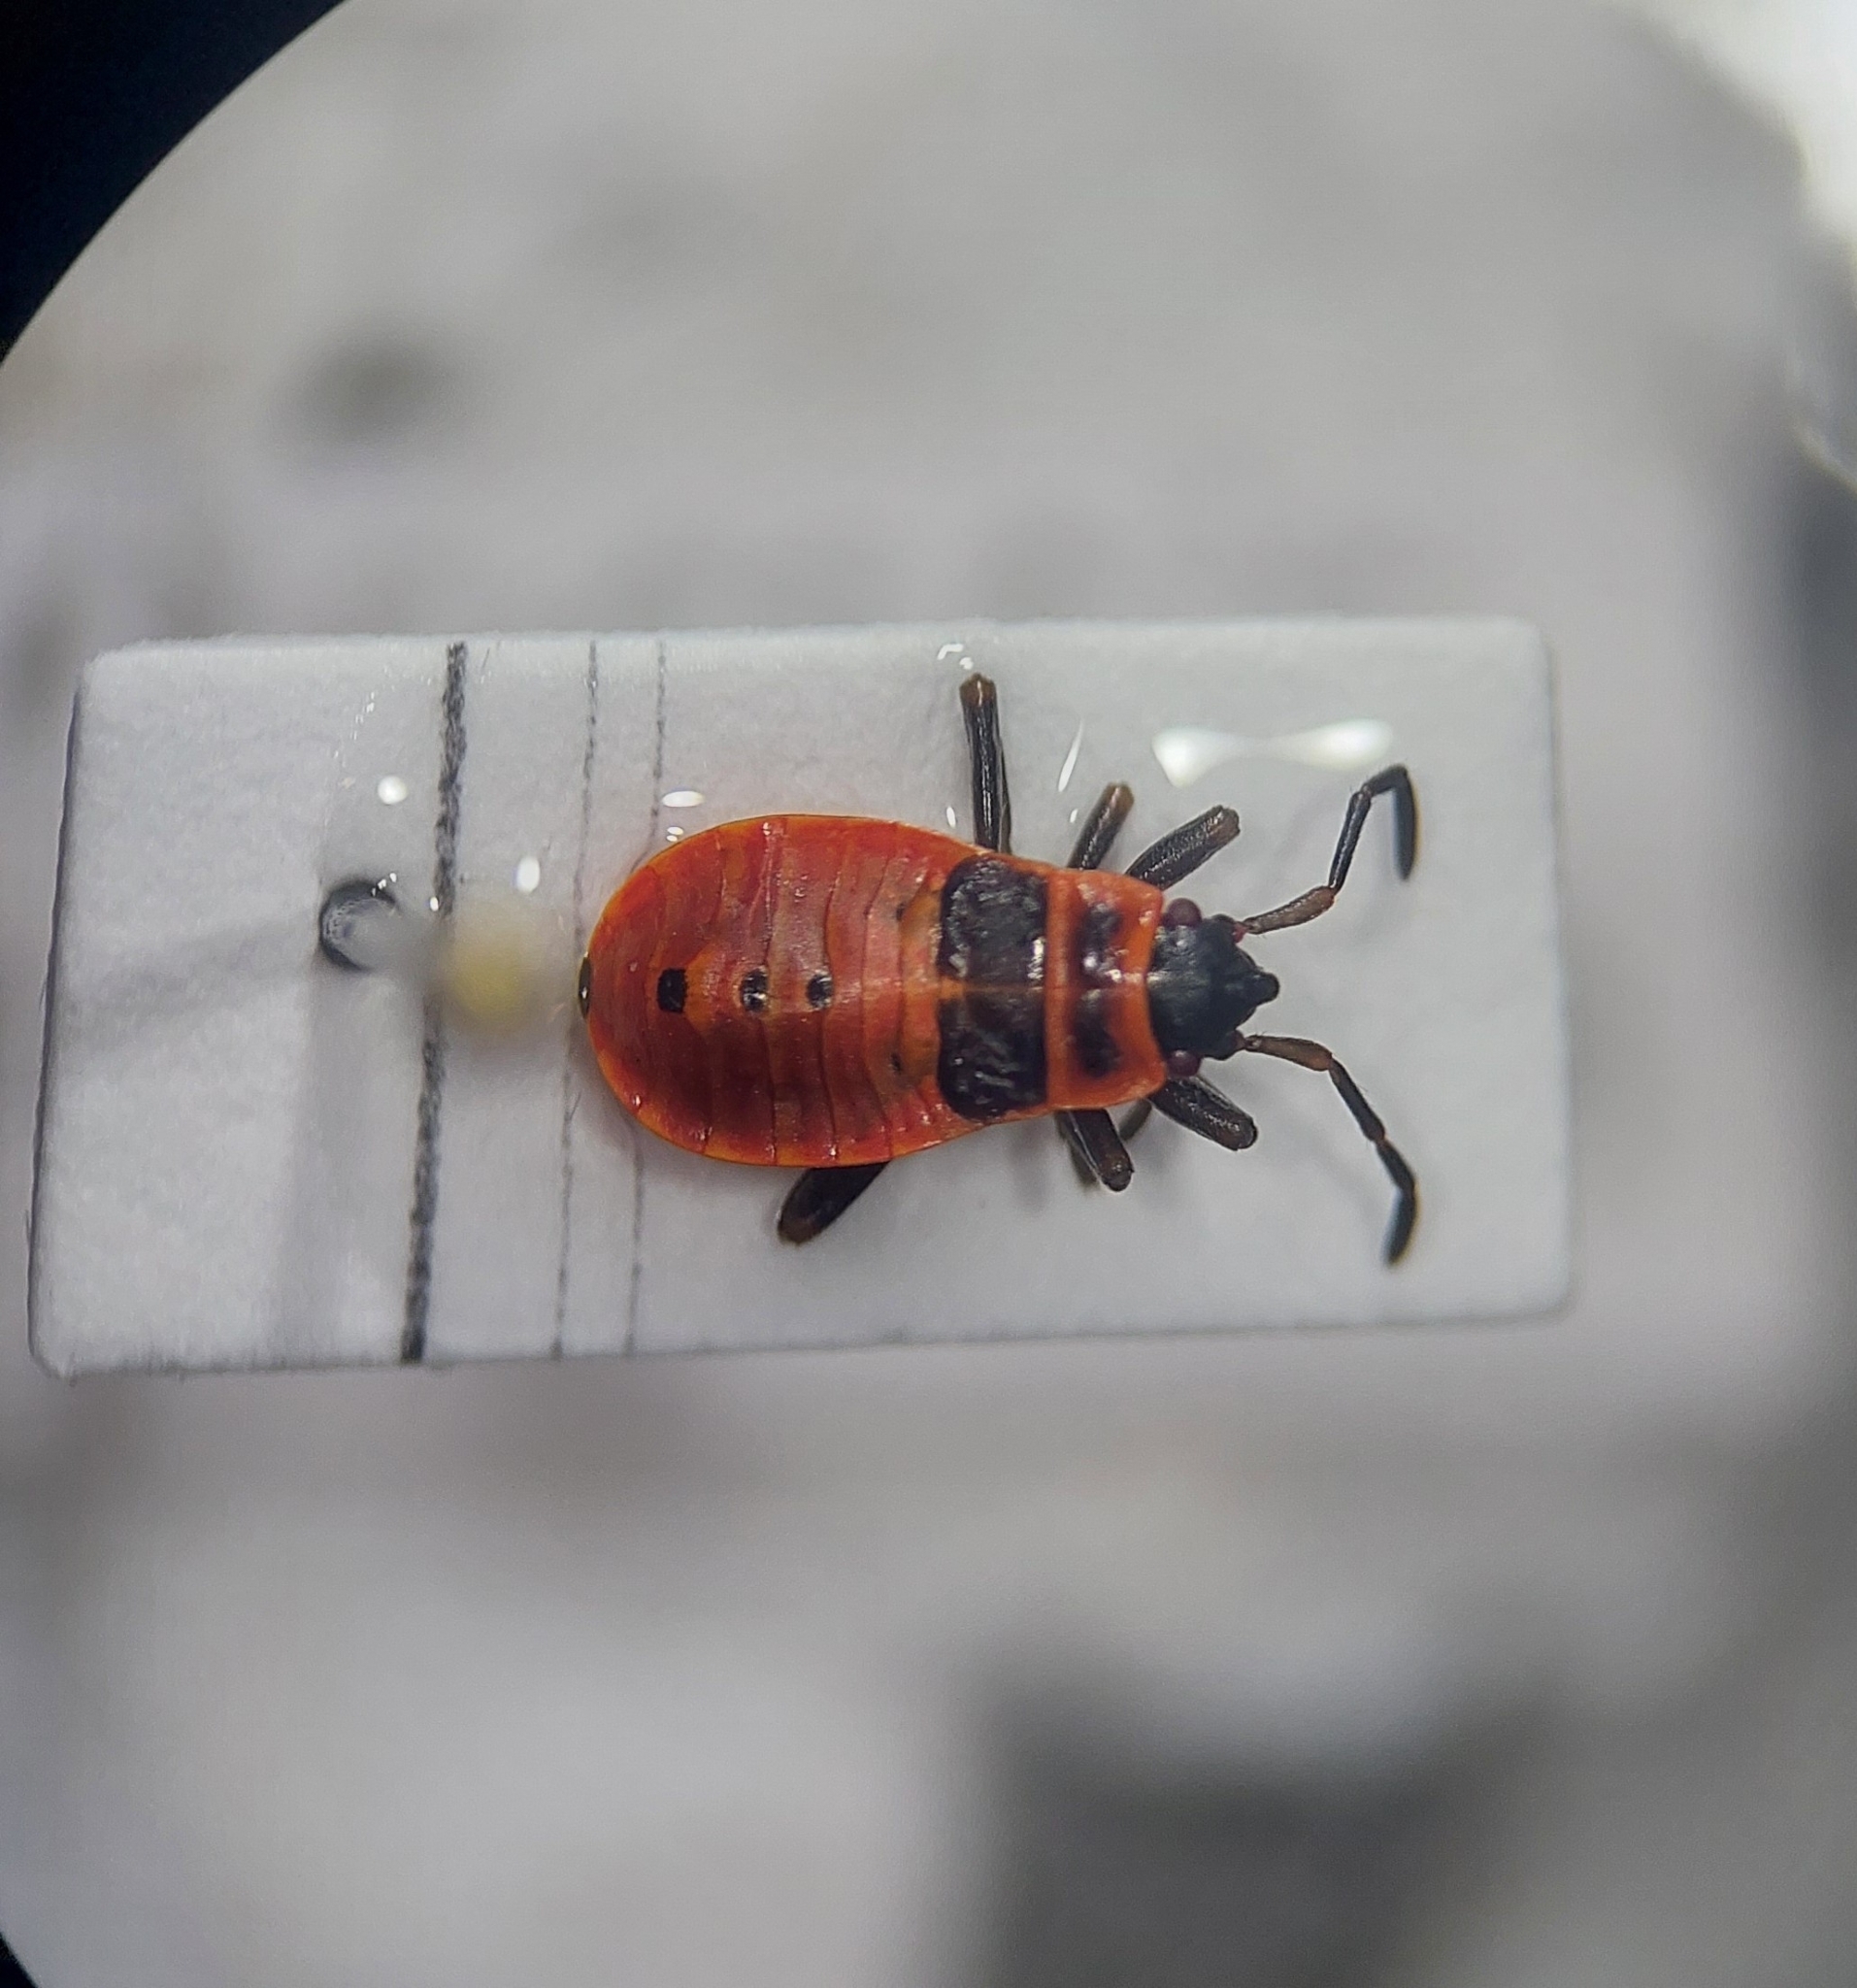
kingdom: Animalia
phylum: Arthropoda
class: Insecta
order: Hemiptera
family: Pyrrhocoridae
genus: Pyrrhocoris
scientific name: Pyrrhocoris apterus
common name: Firebug
